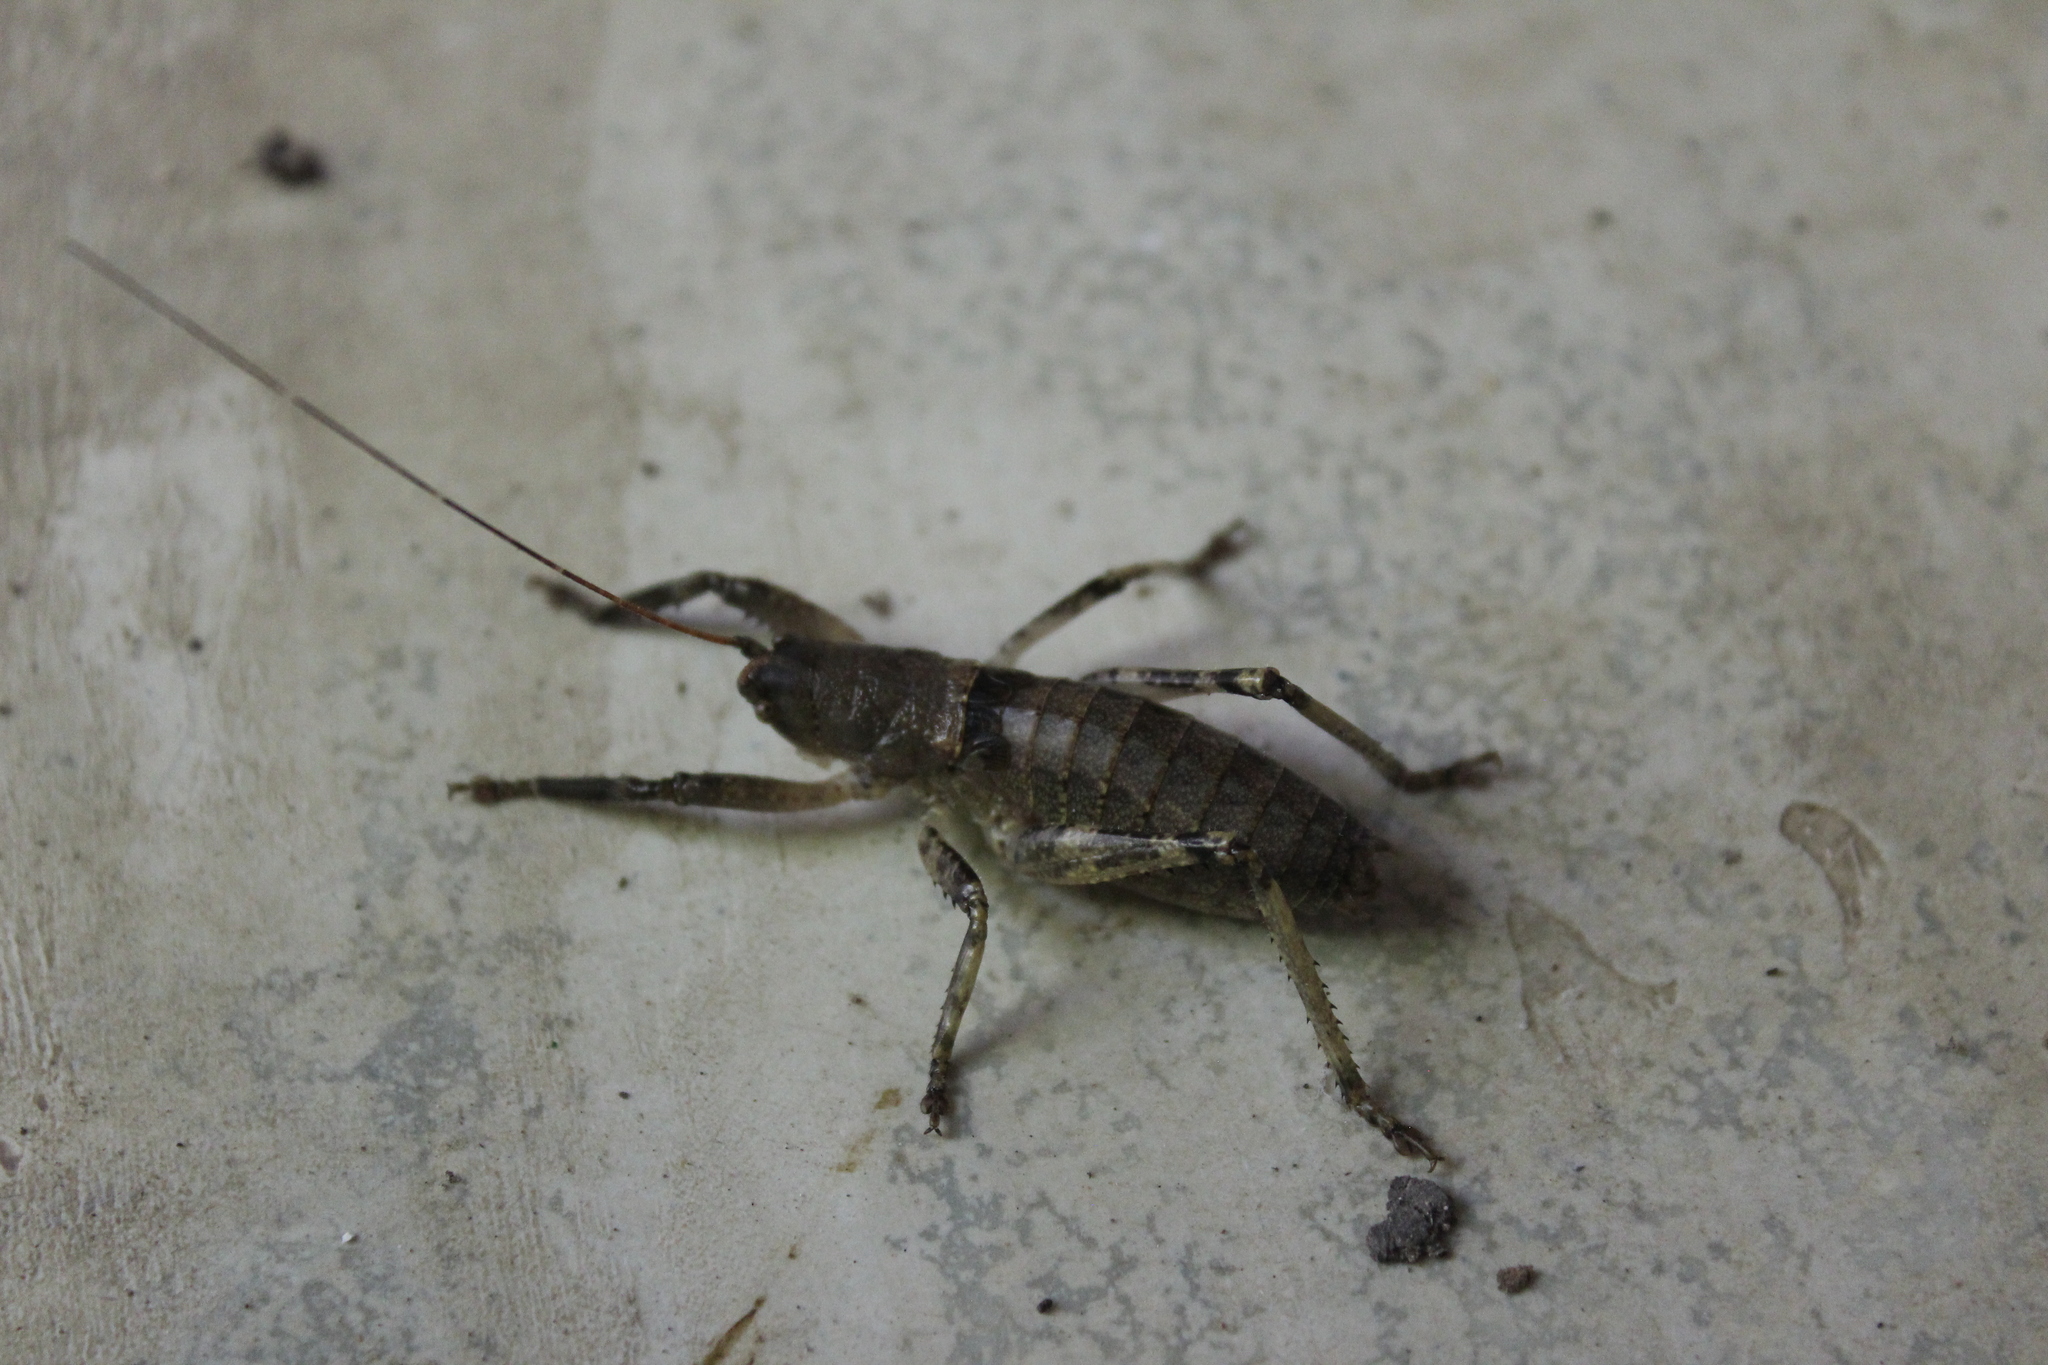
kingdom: Animalia
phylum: Arthropoda
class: Insecta
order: Orthoptera
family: Tettigoniidae
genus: Nesoecia
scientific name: Nesoecia nigrispina
